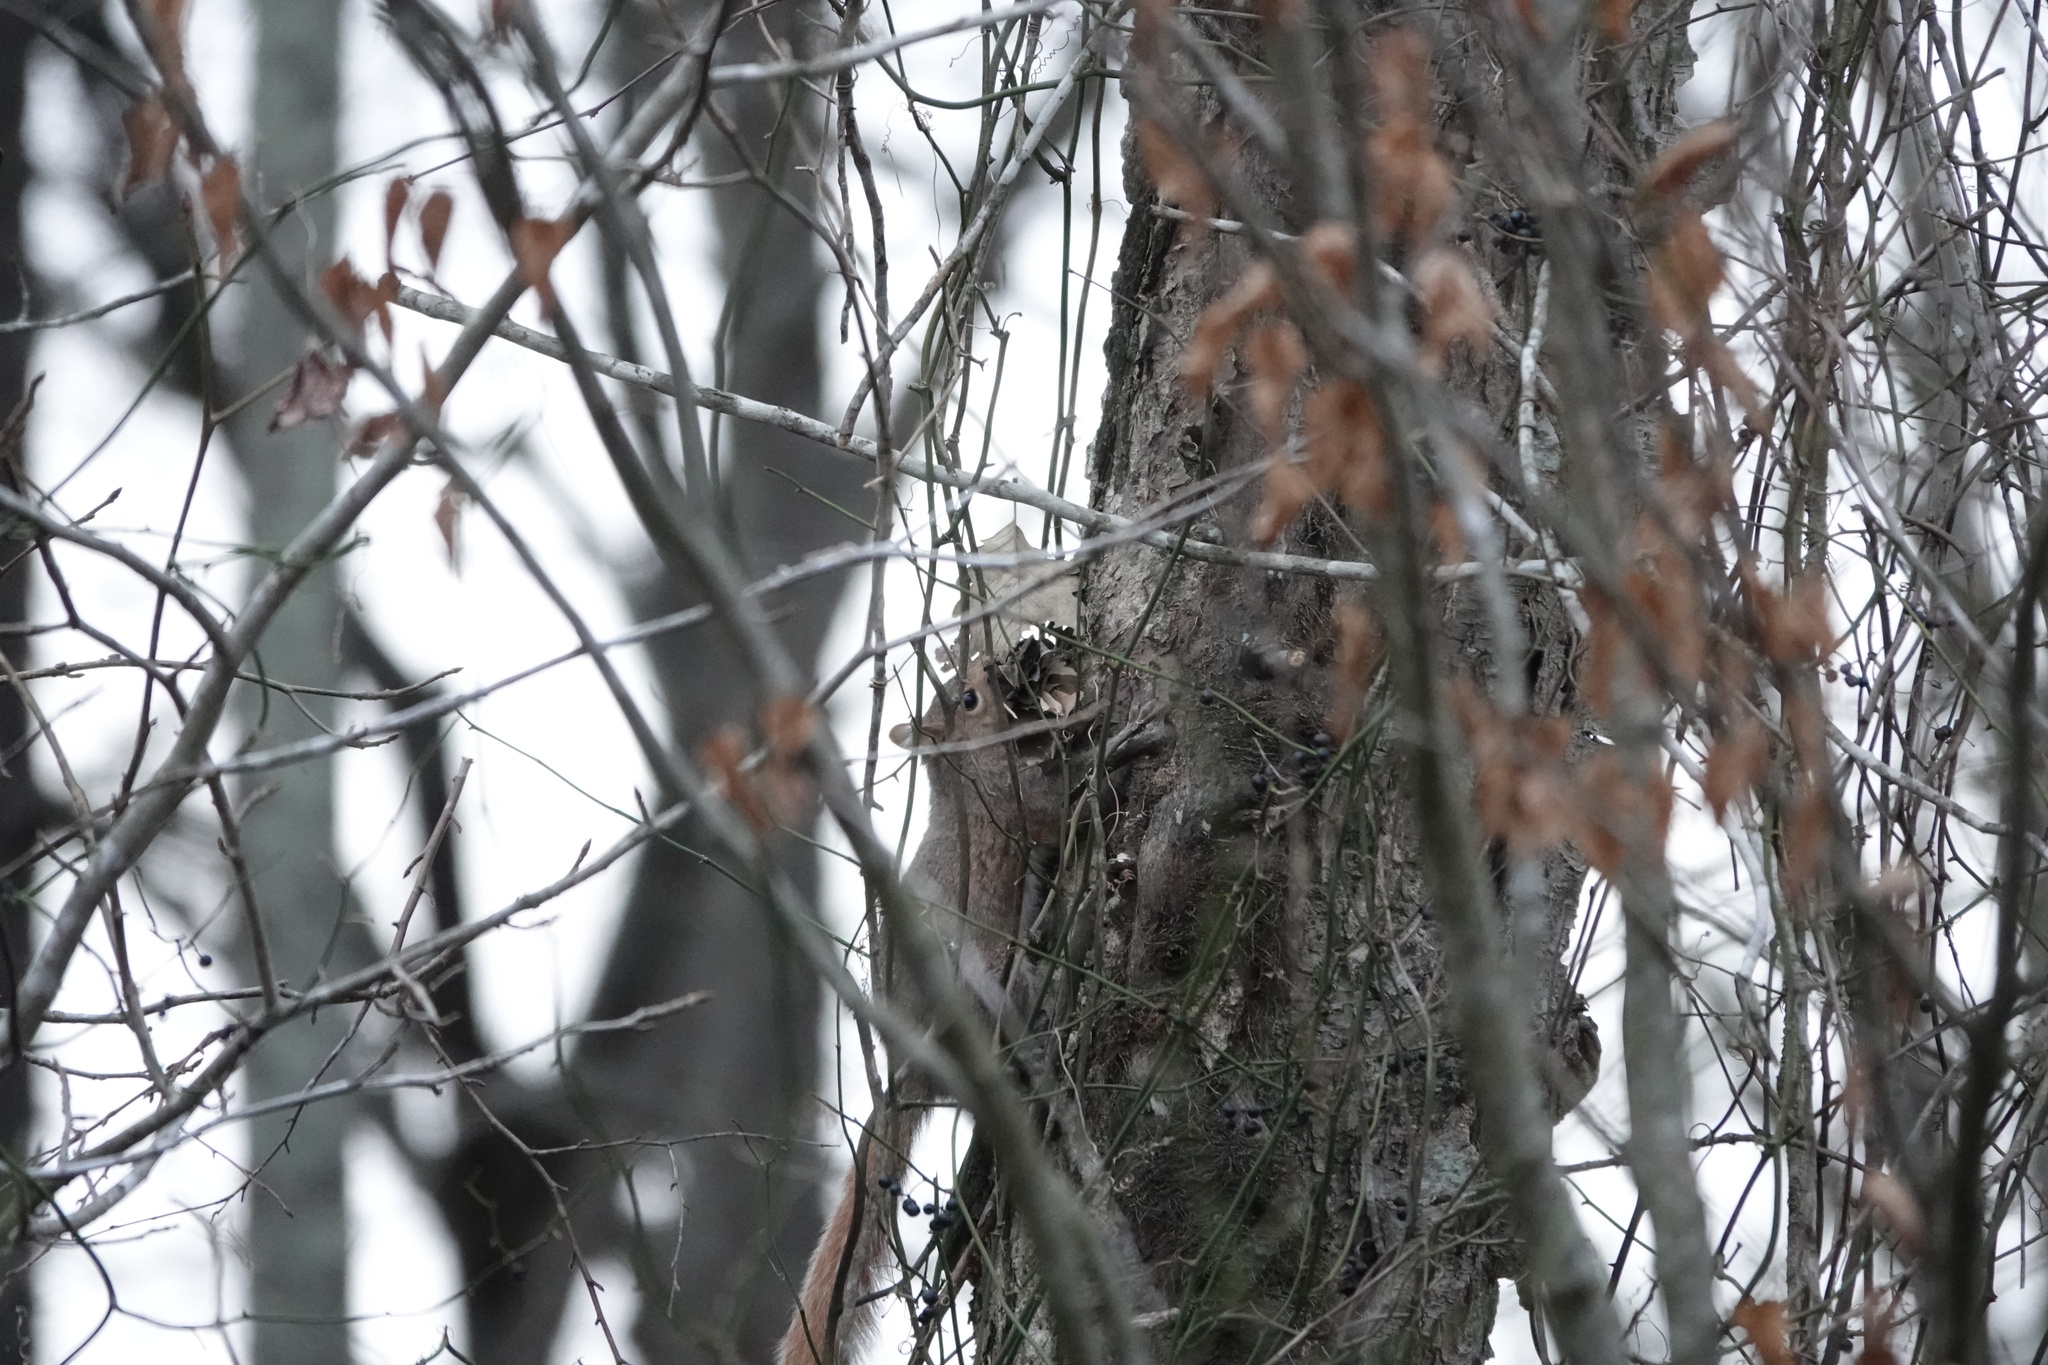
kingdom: Animalia
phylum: Chordata
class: Mammalia
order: Rodentia
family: Sciuridae
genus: Sciurus
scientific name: Sciurus carolinensis
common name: Eastern gray squirrel
